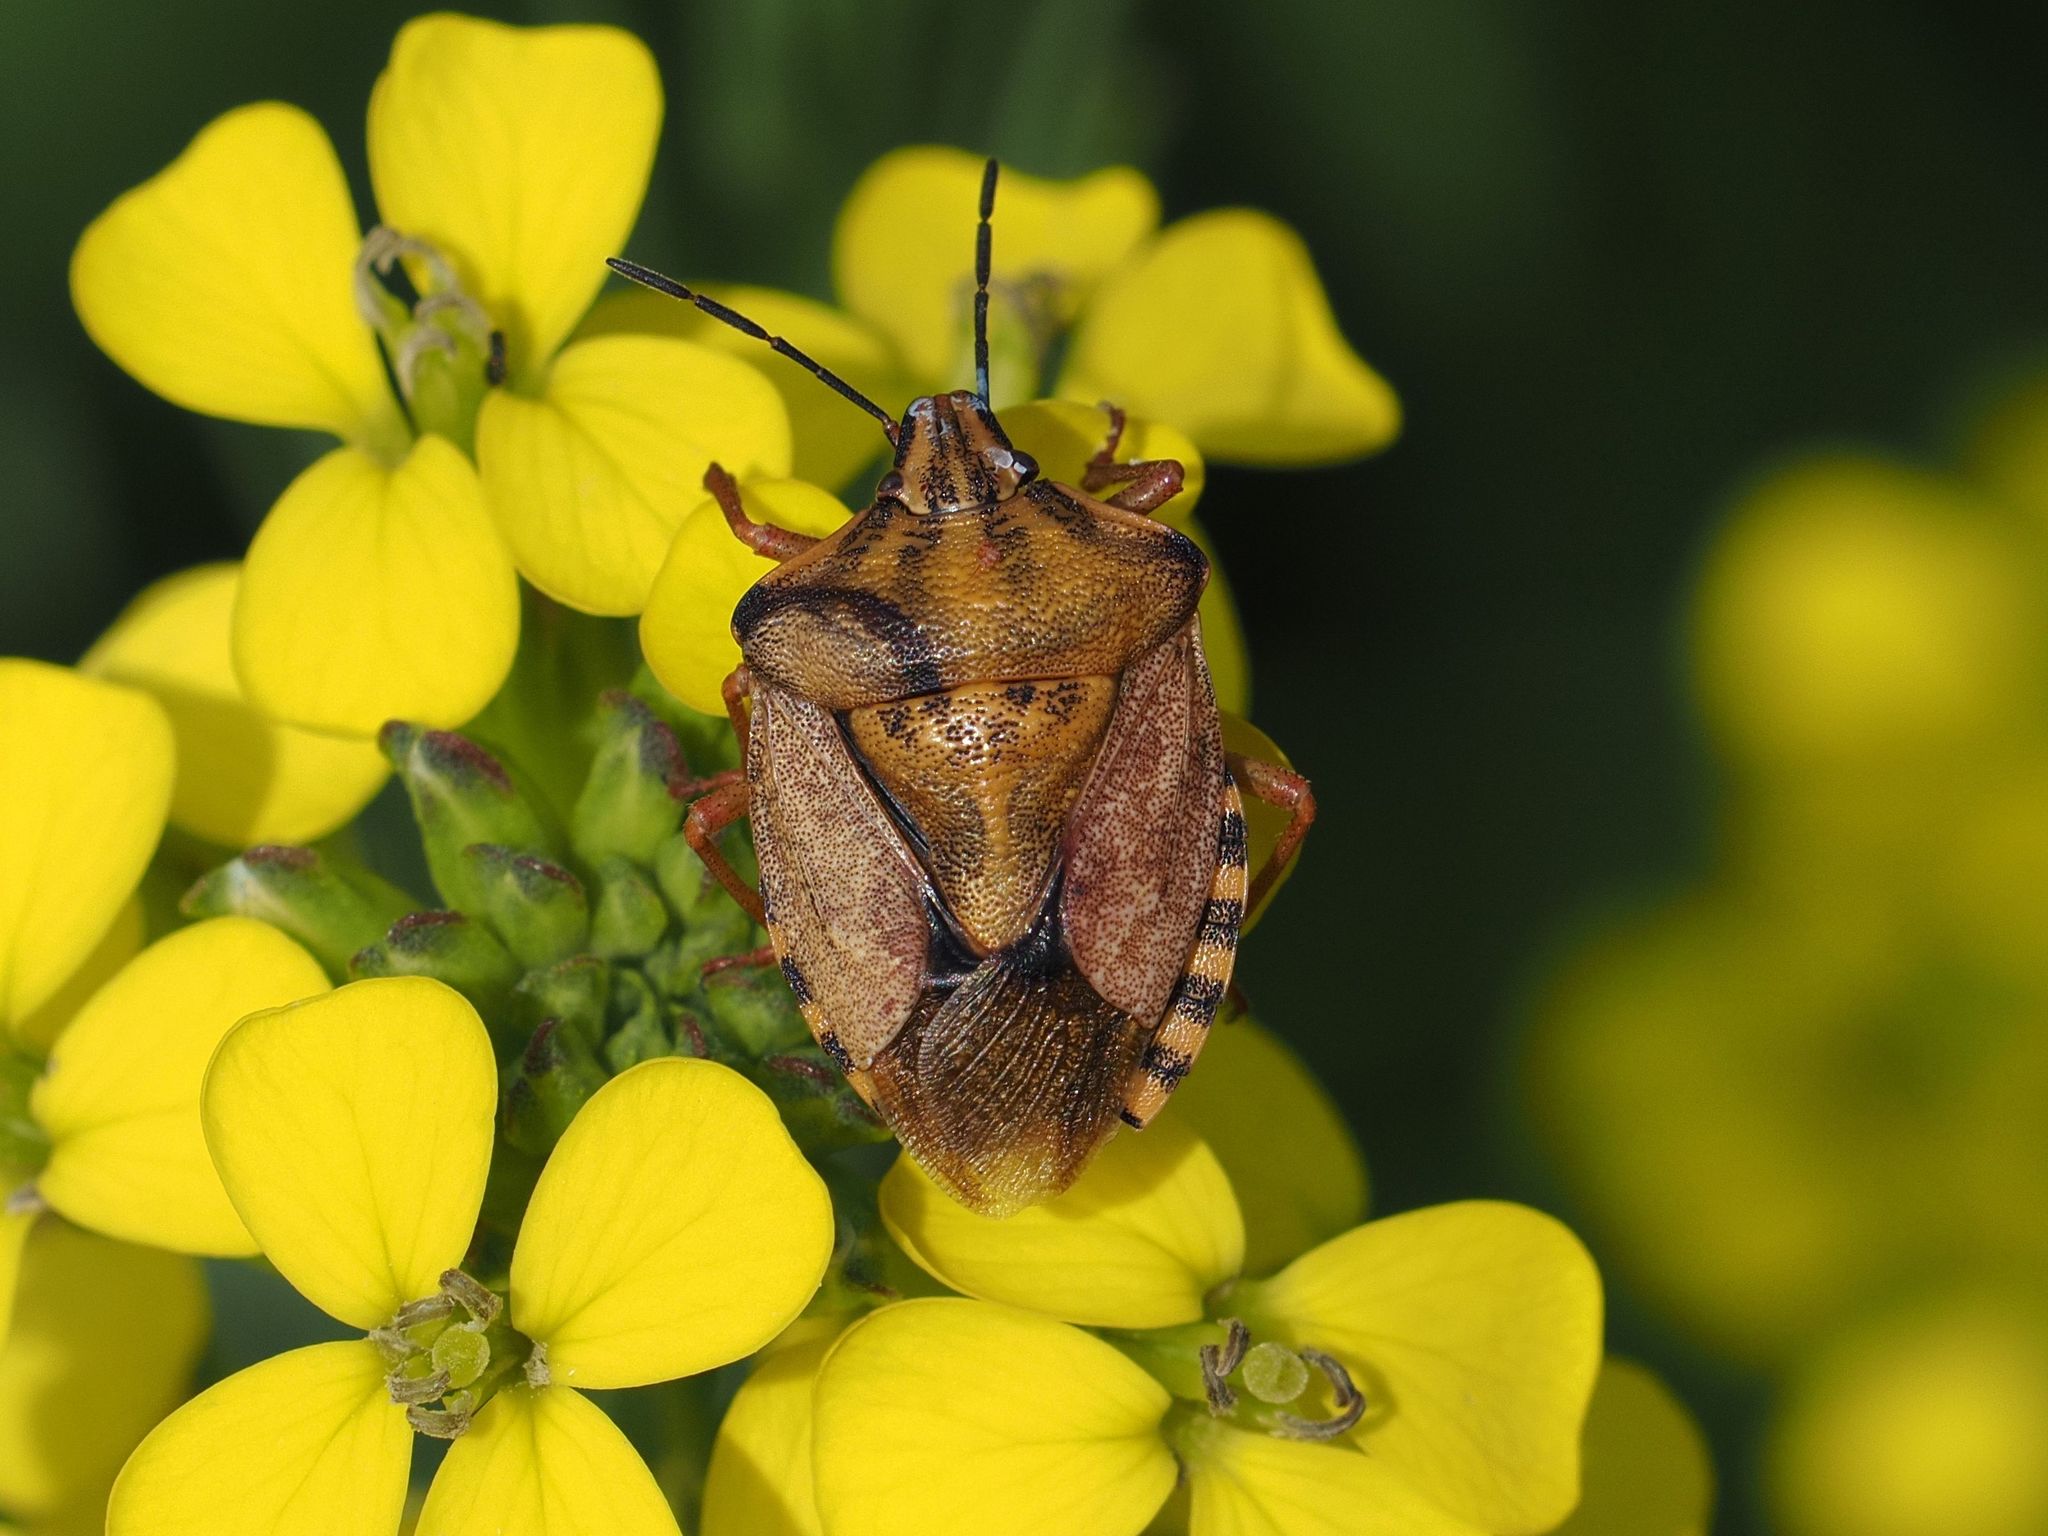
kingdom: Animalia
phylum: Arthropoda
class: Insecta
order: Hemiptera
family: Pentatomidae
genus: Carpocoris
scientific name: Carpocoris purpureipennis
